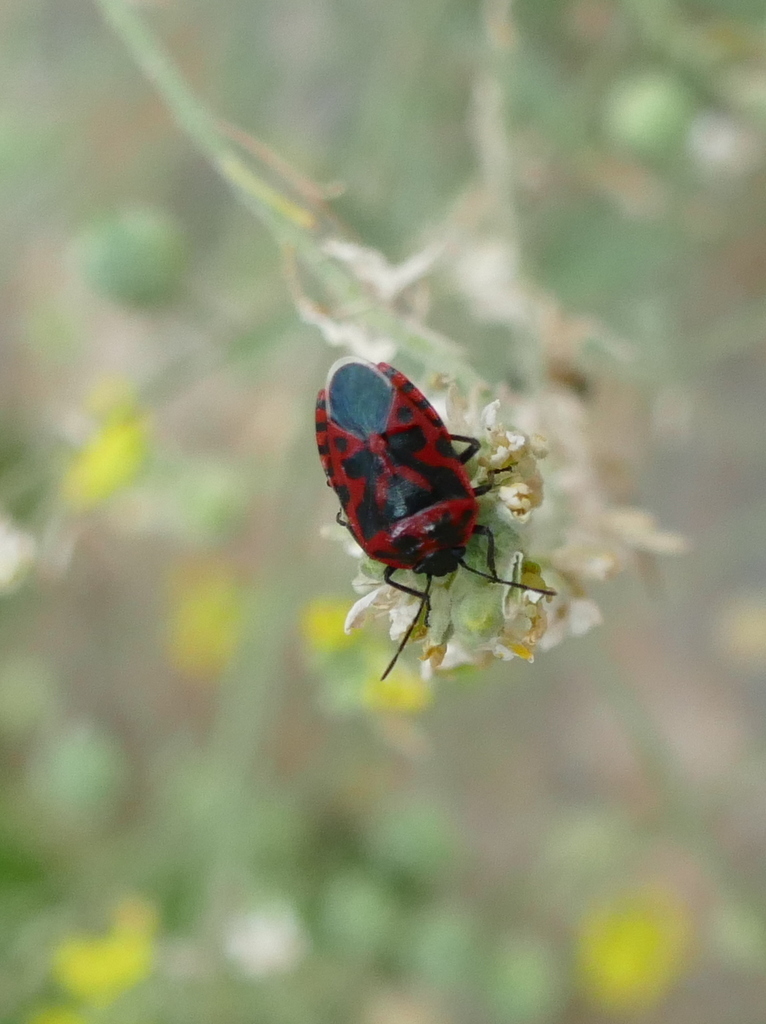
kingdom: Animalia
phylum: Arthropoda
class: Insecta
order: Hemiptera
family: Pentatomidae
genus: Eurydema
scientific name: Eurydema ventralis
